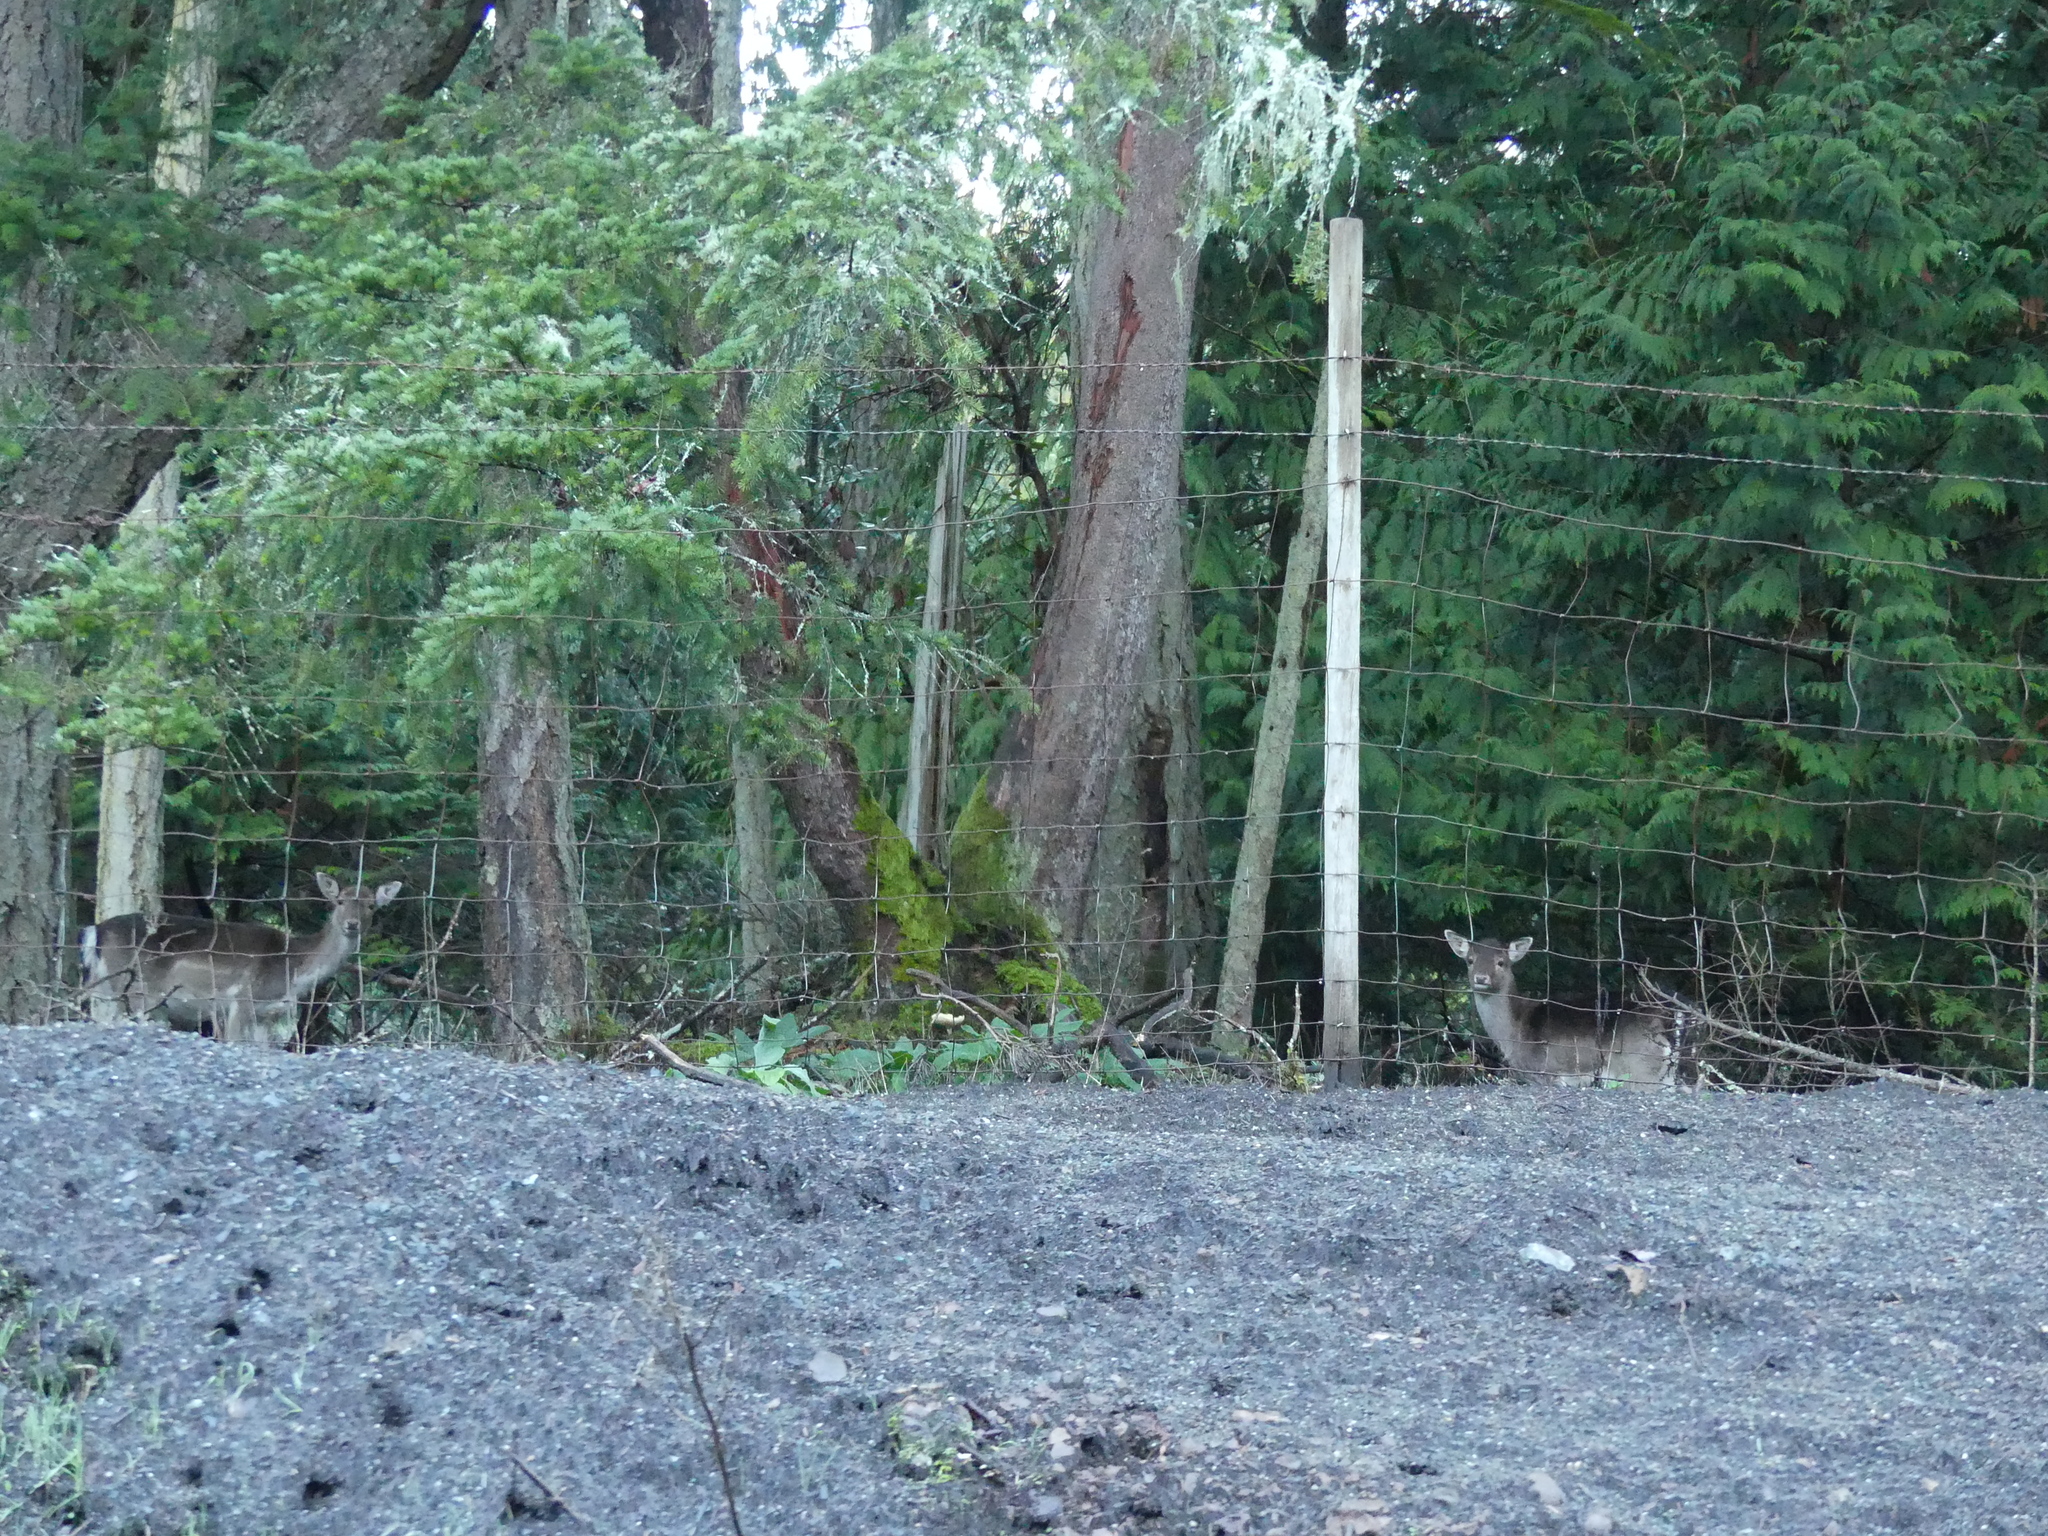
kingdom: Animalia
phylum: Chordata
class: Mammalia
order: Artiodactyla
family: Cervidae
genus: Dama
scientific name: Dama dama
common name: Fallow deer
